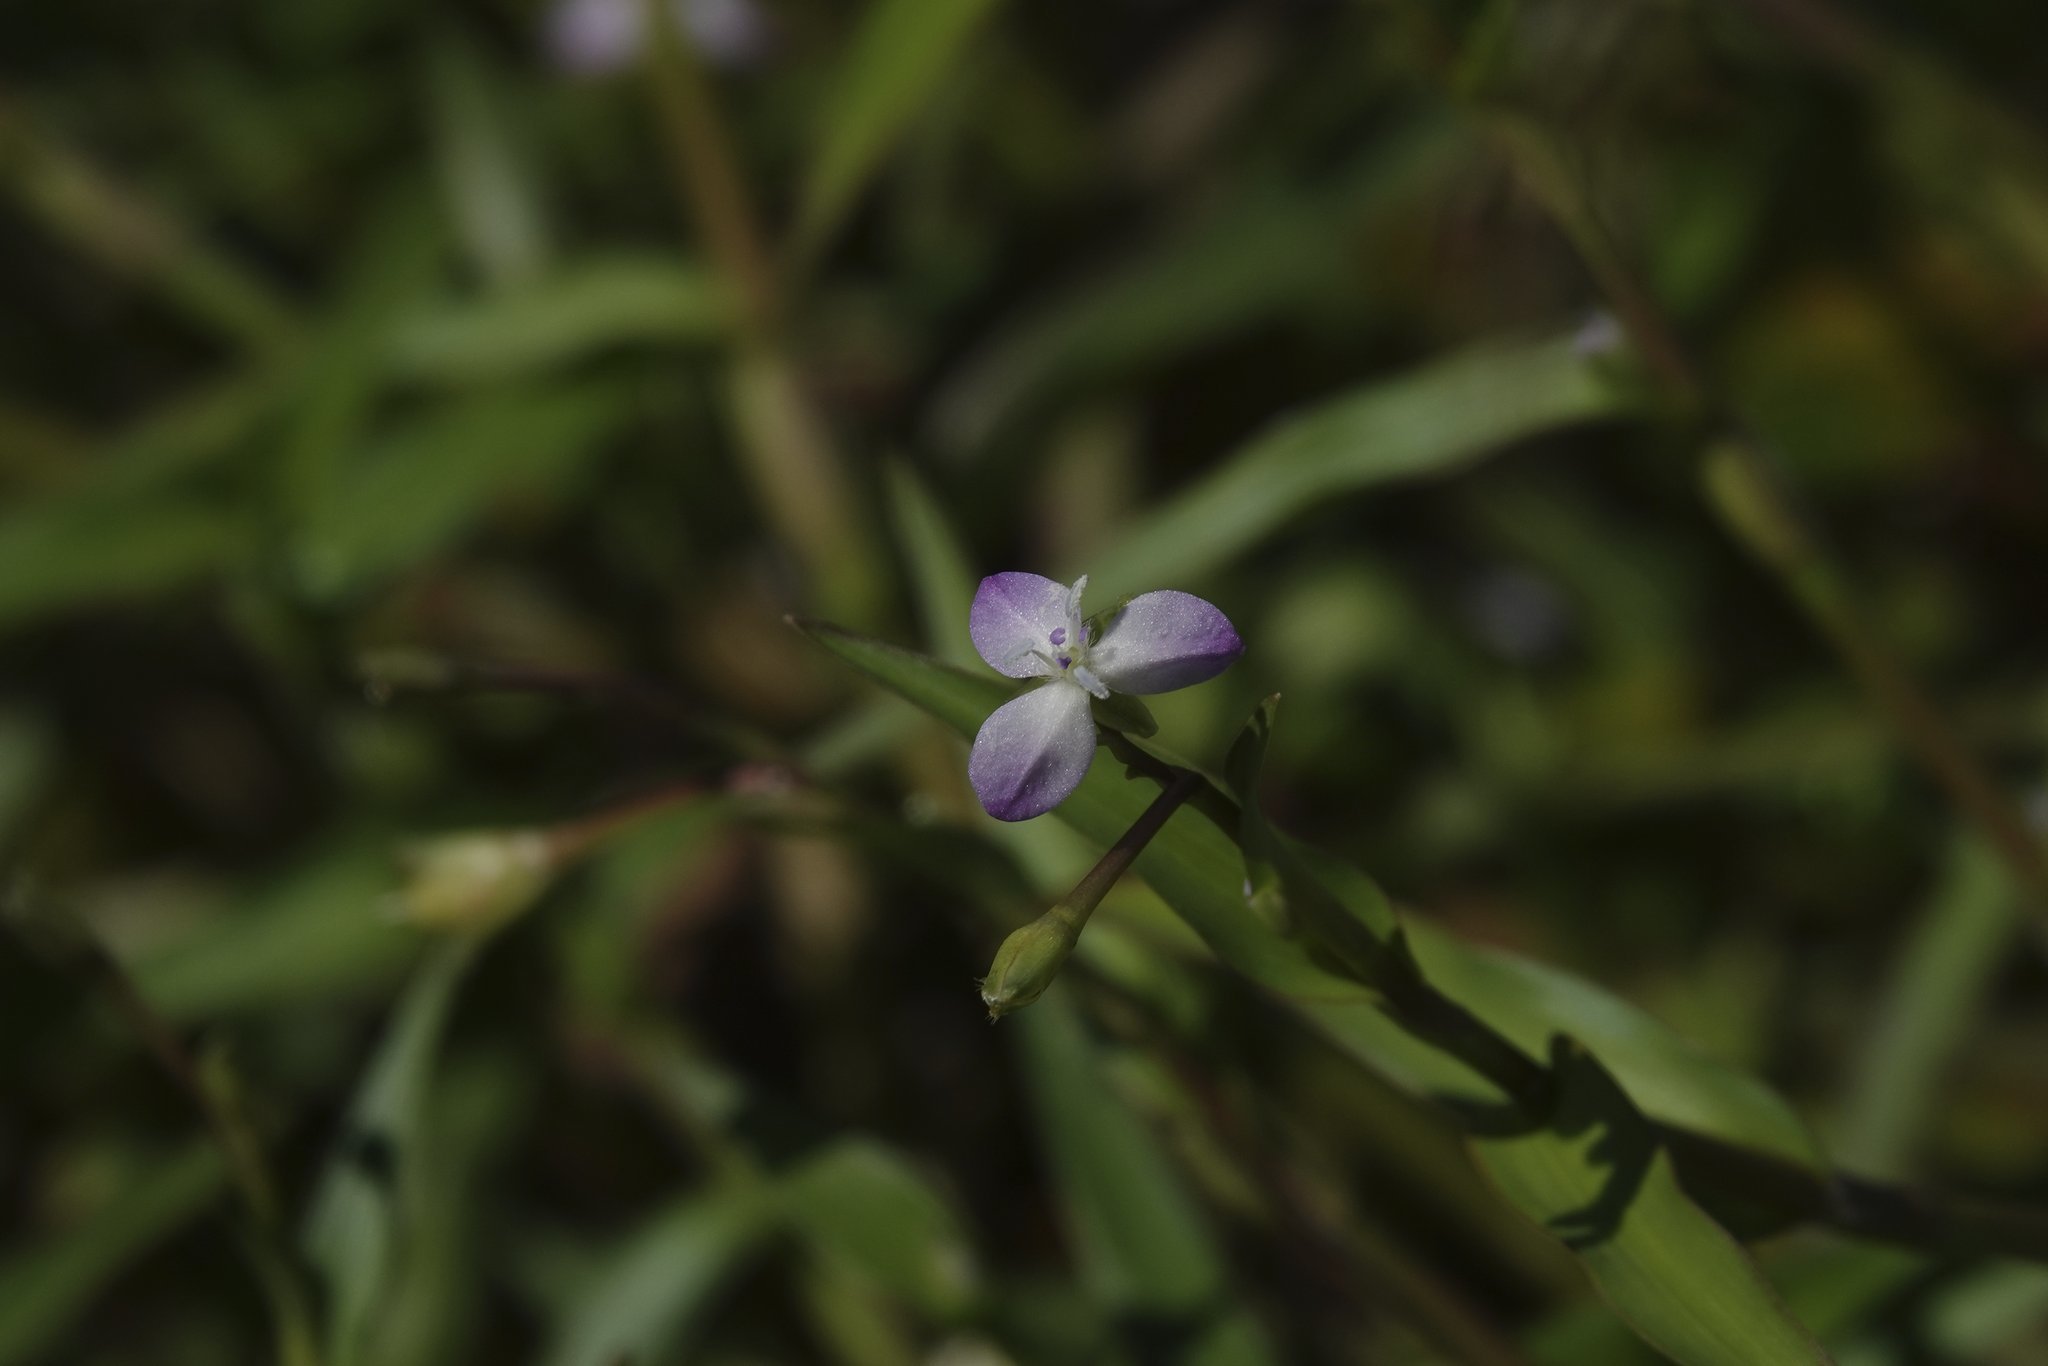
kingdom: Plantae
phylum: Tracheophyta
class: Liliopsida
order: Commelinales
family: Commelinaceae
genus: Murdannia
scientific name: Murdannia keisak
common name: Wartremoving herb
